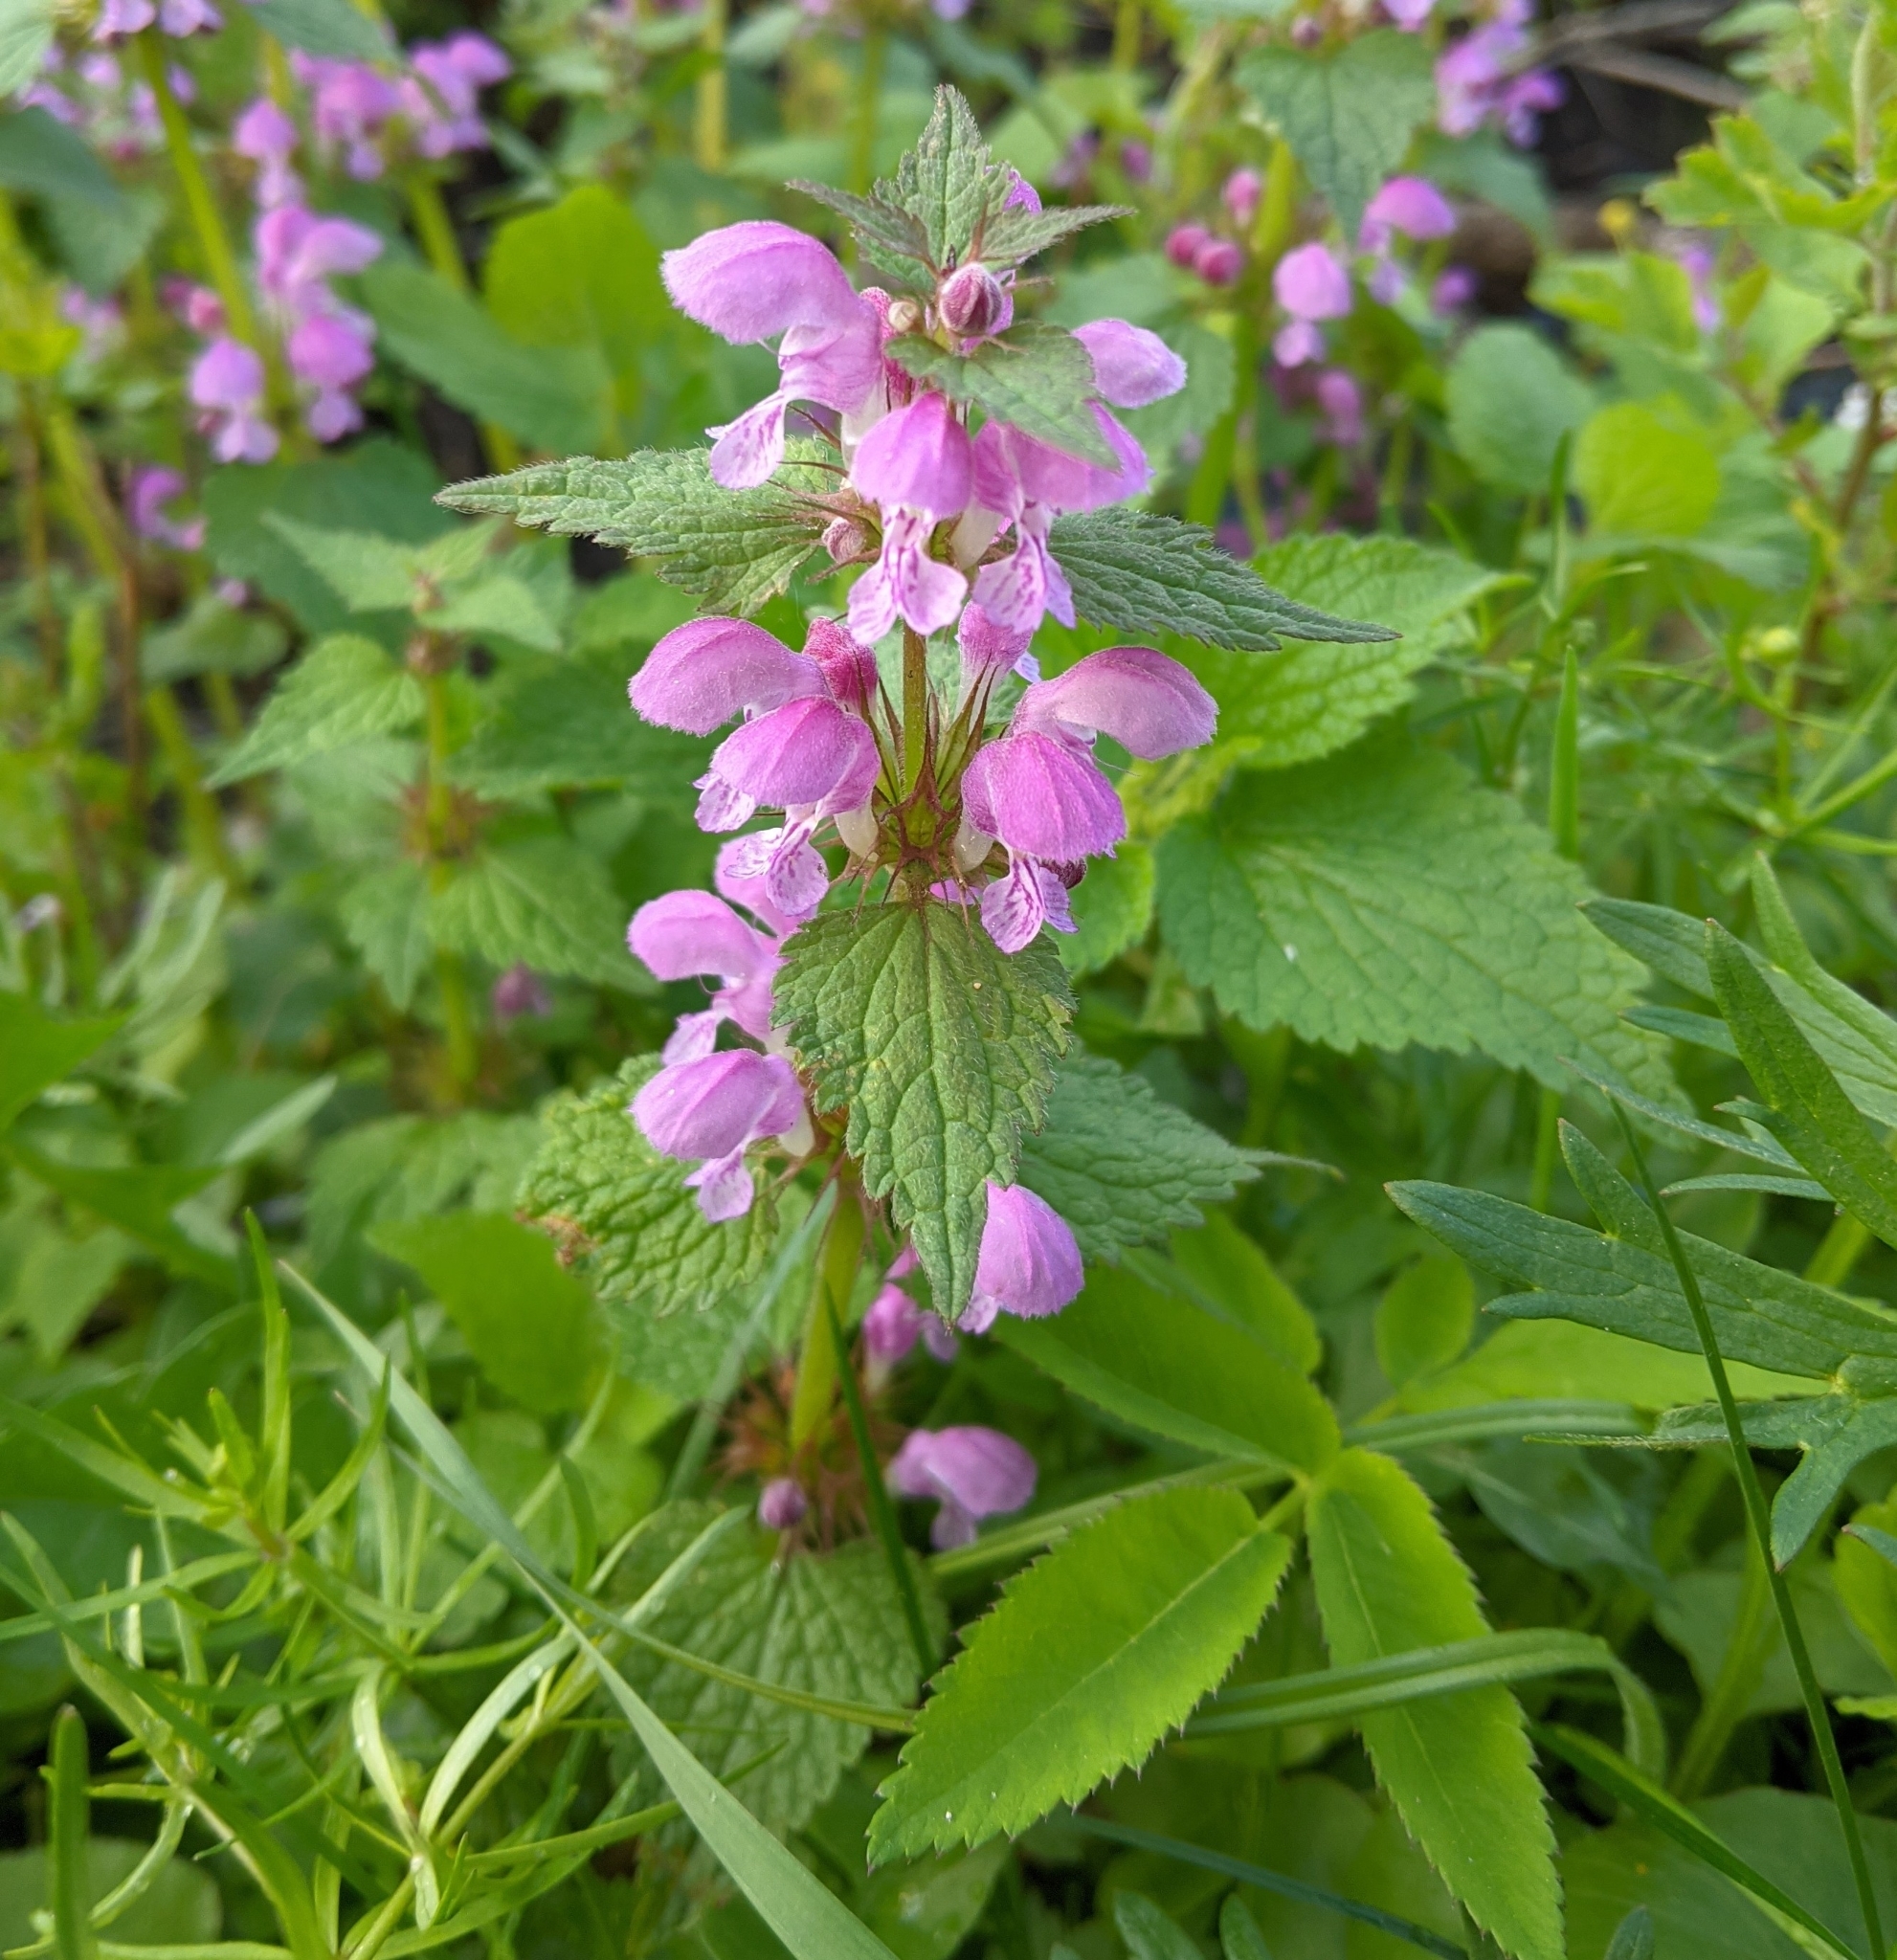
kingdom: Plantae
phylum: Tracheophyta
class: Magnoliopsida
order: Lamiales
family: Lamiaceae
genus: Lamium
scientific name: Lamium maculatum
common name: Spotted dead-nettle
